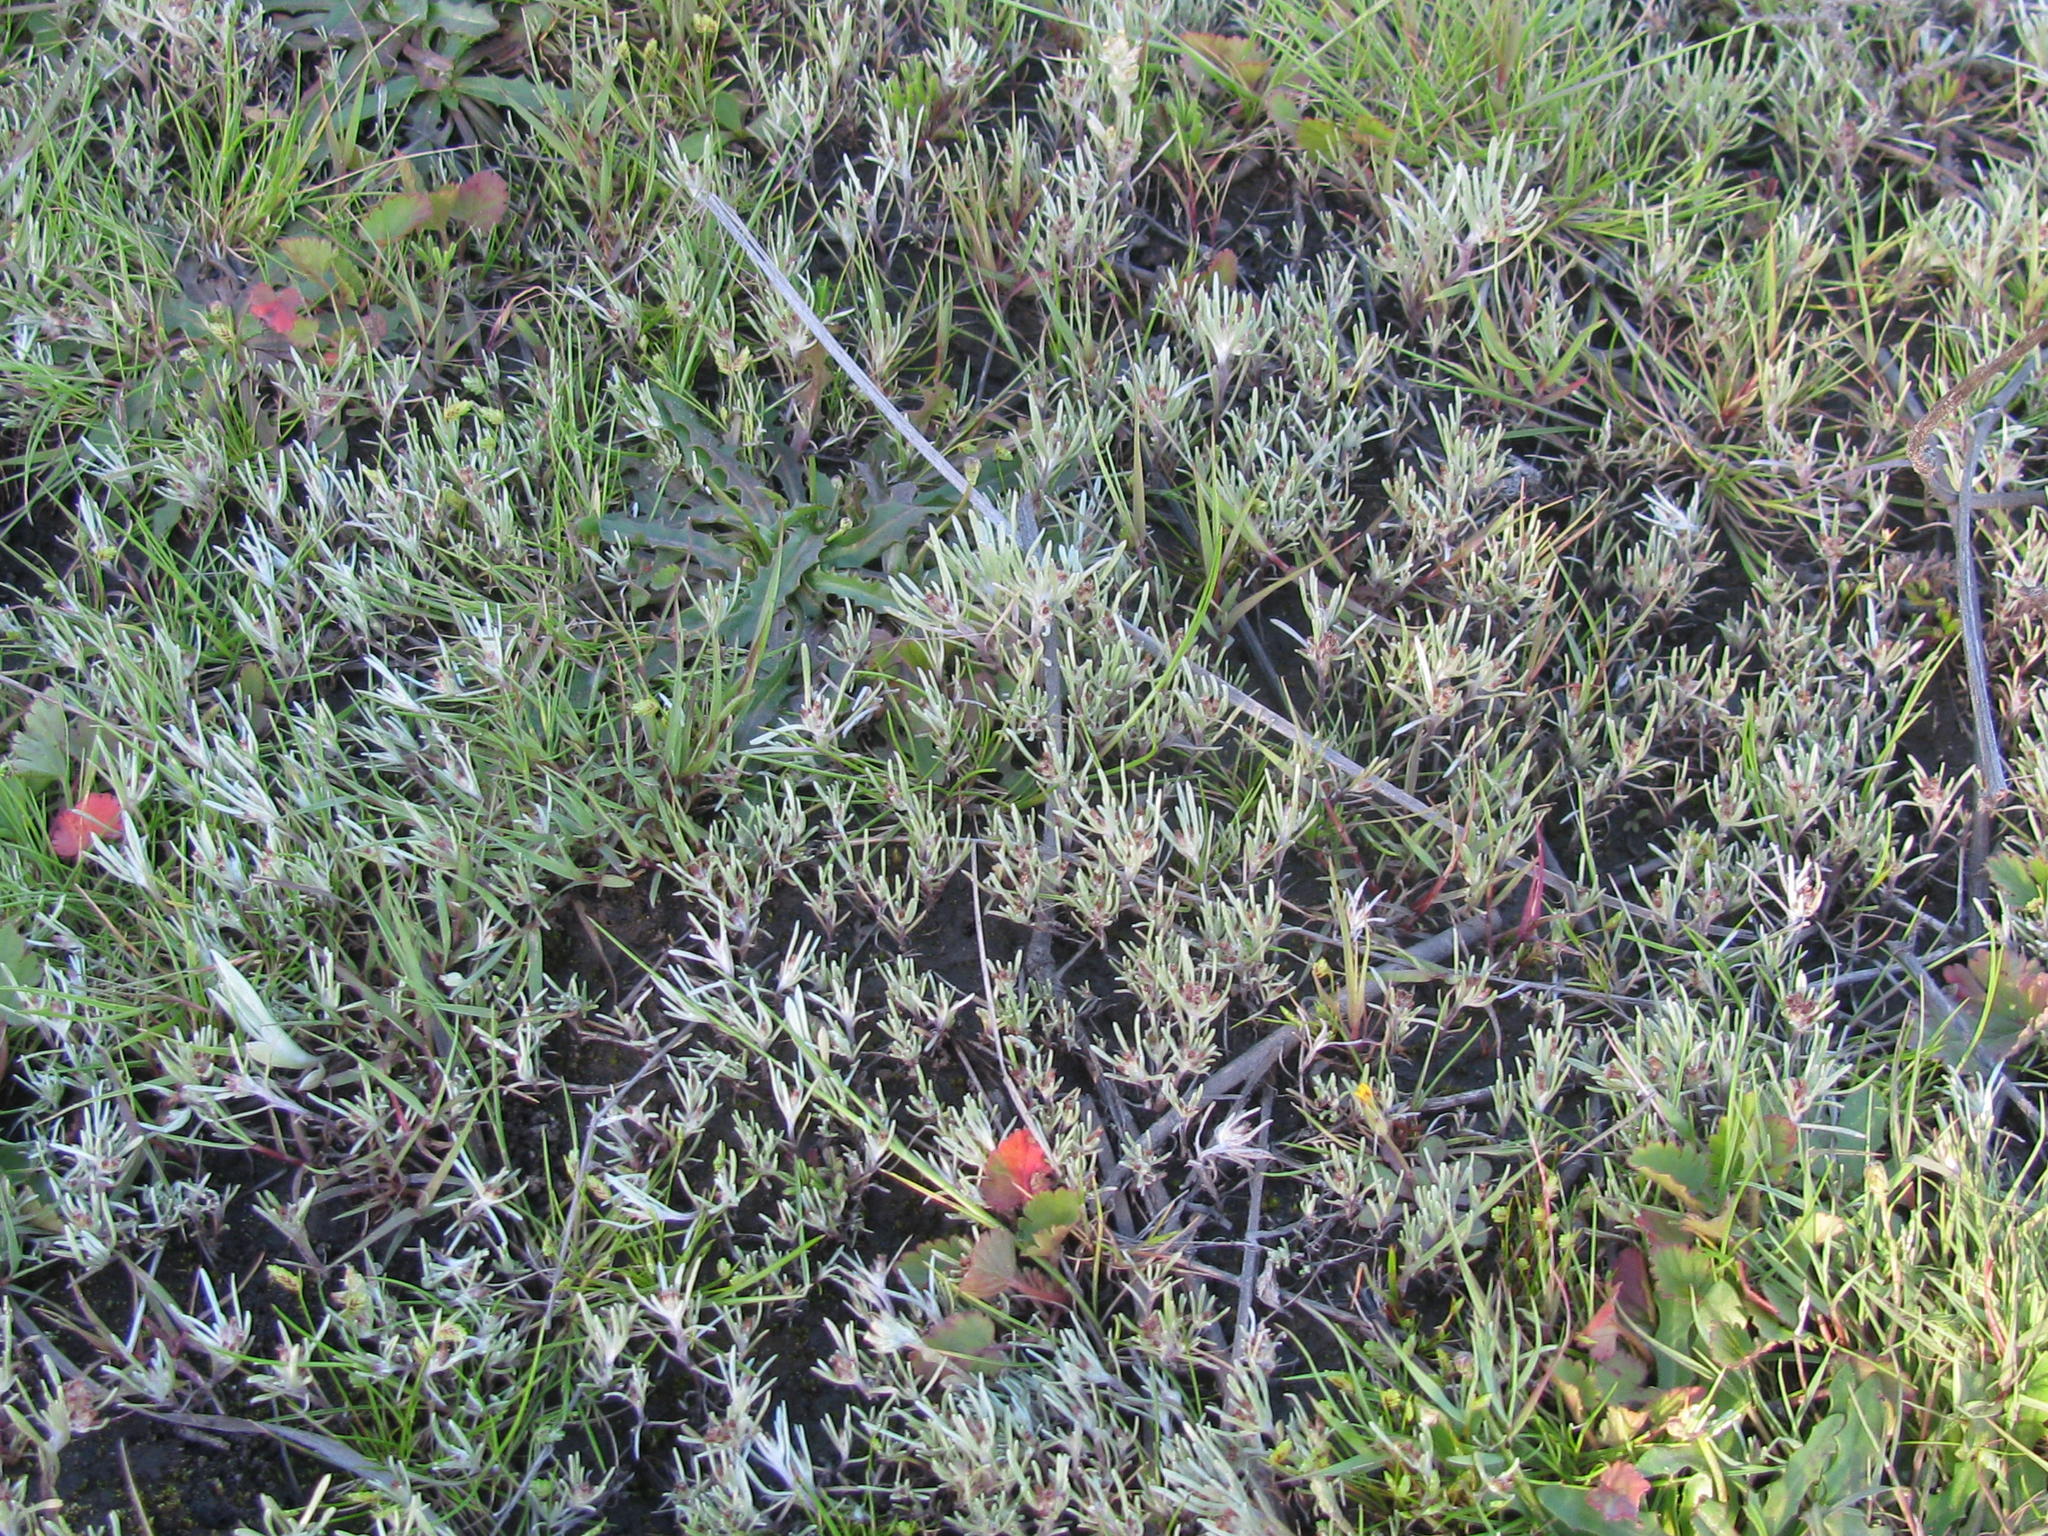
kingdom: Plantae
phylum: Tracheophyta
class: Magnoliopsida
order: Asterales
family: Asteraceae
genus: Gnaphalium
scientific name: Gnaphalium pauciflorum
